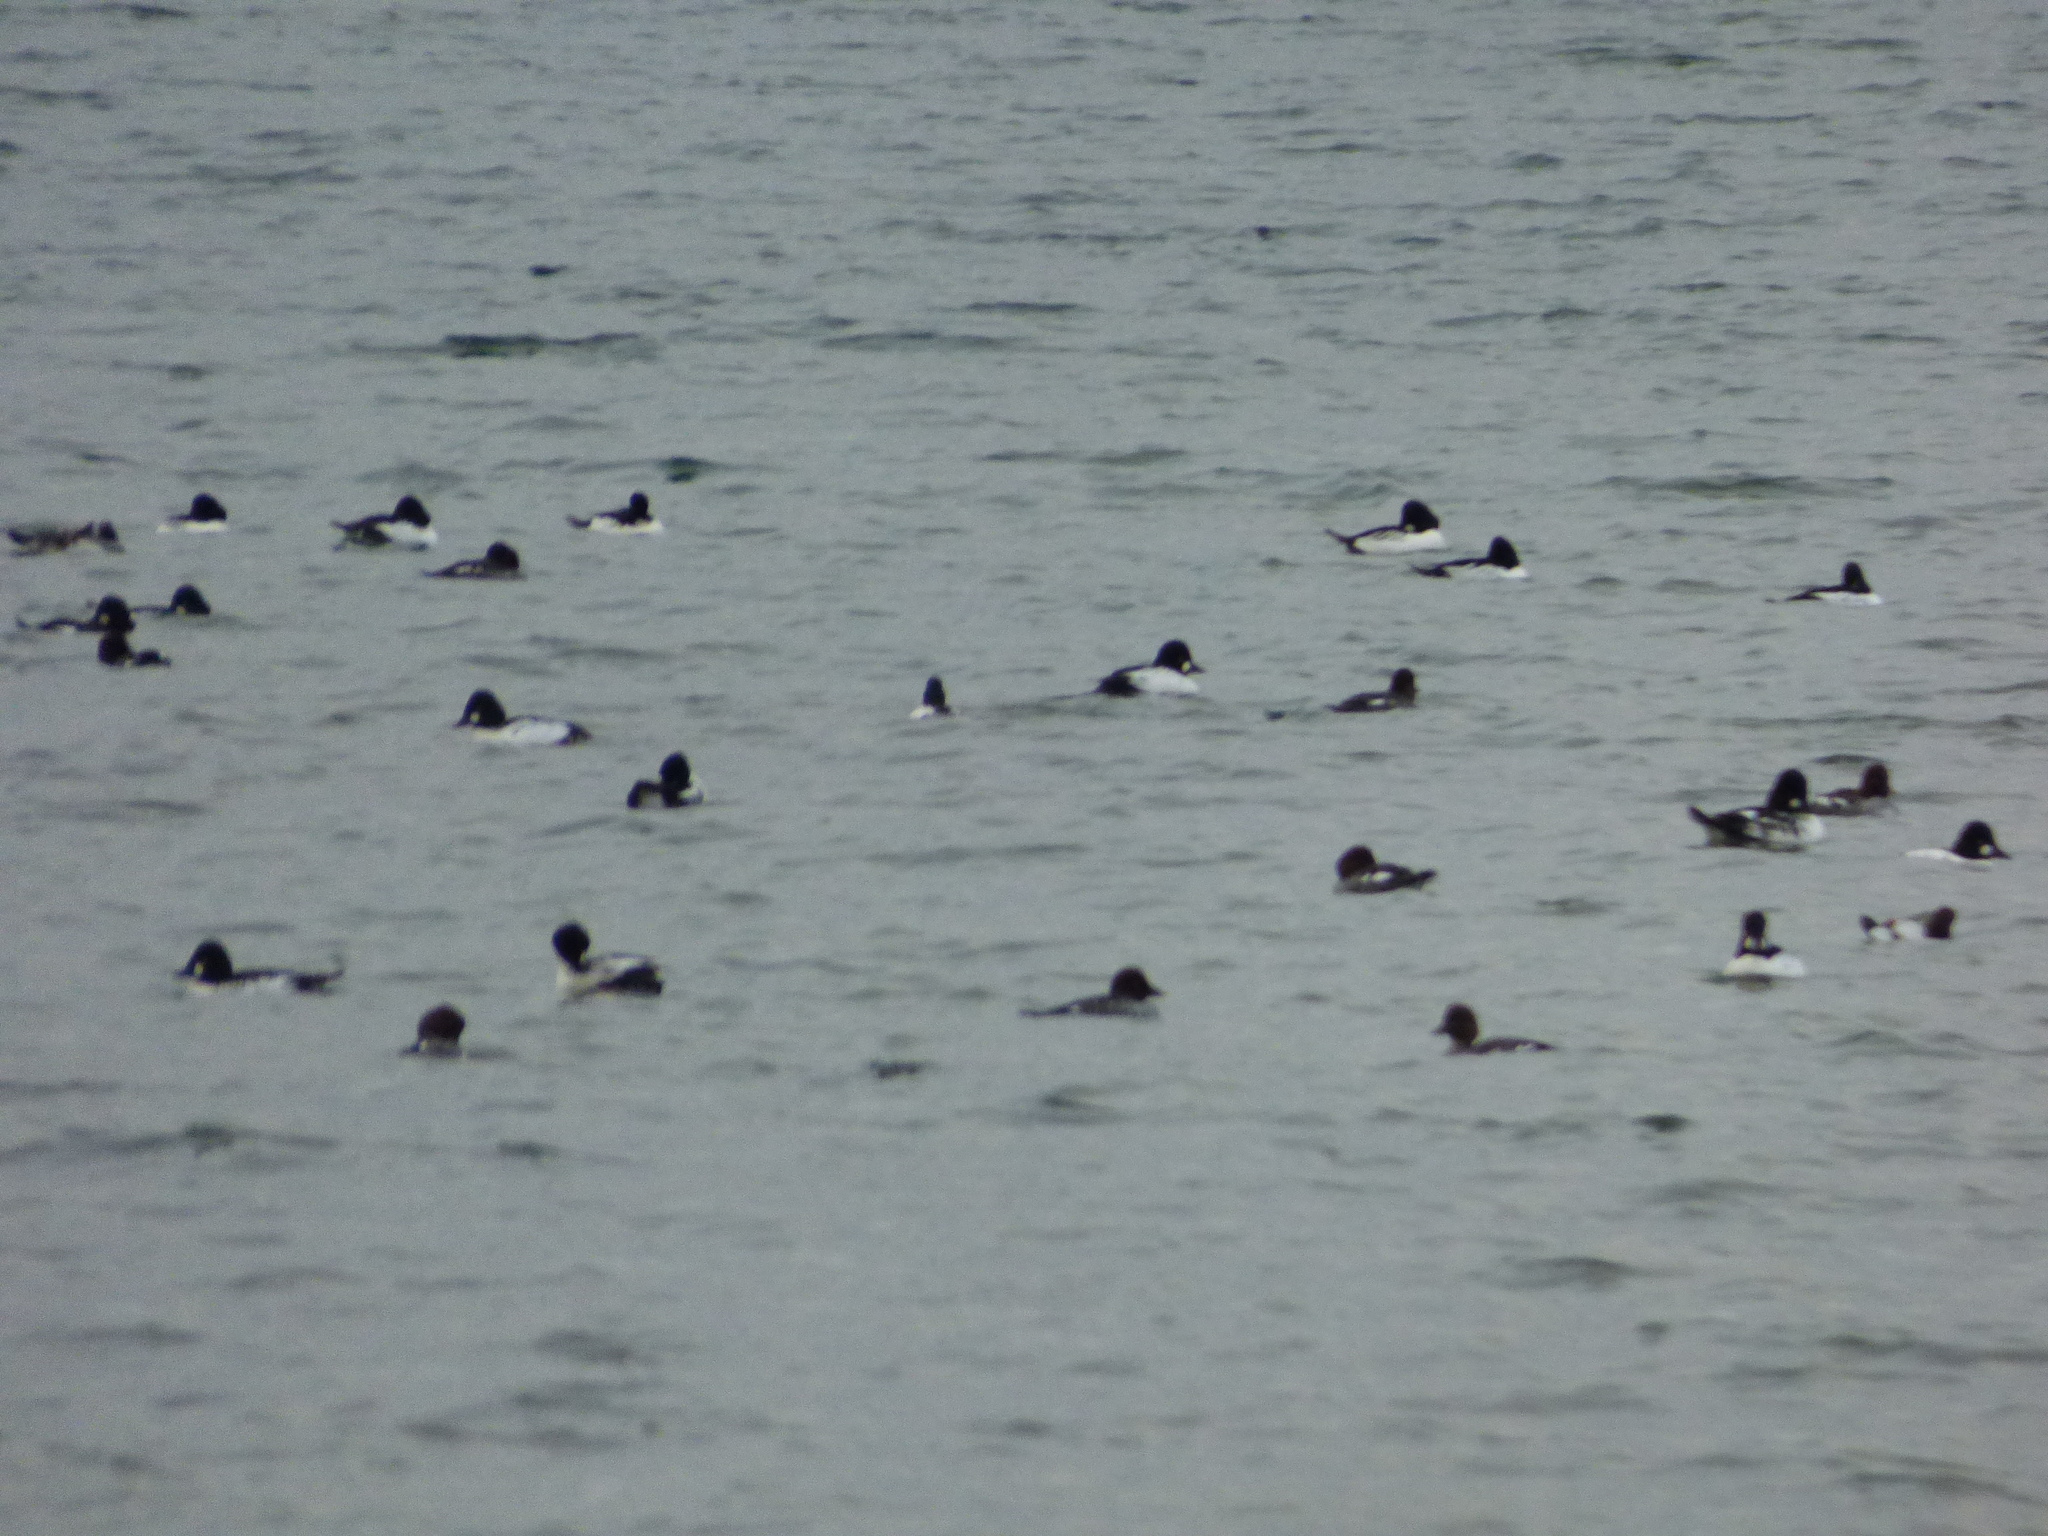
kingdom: Animalia
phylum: Chordata
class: Aves
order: Anseriformes
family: Anatidae
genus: Bucephala
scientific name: Bucephala clangula
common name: Common goldeneye
